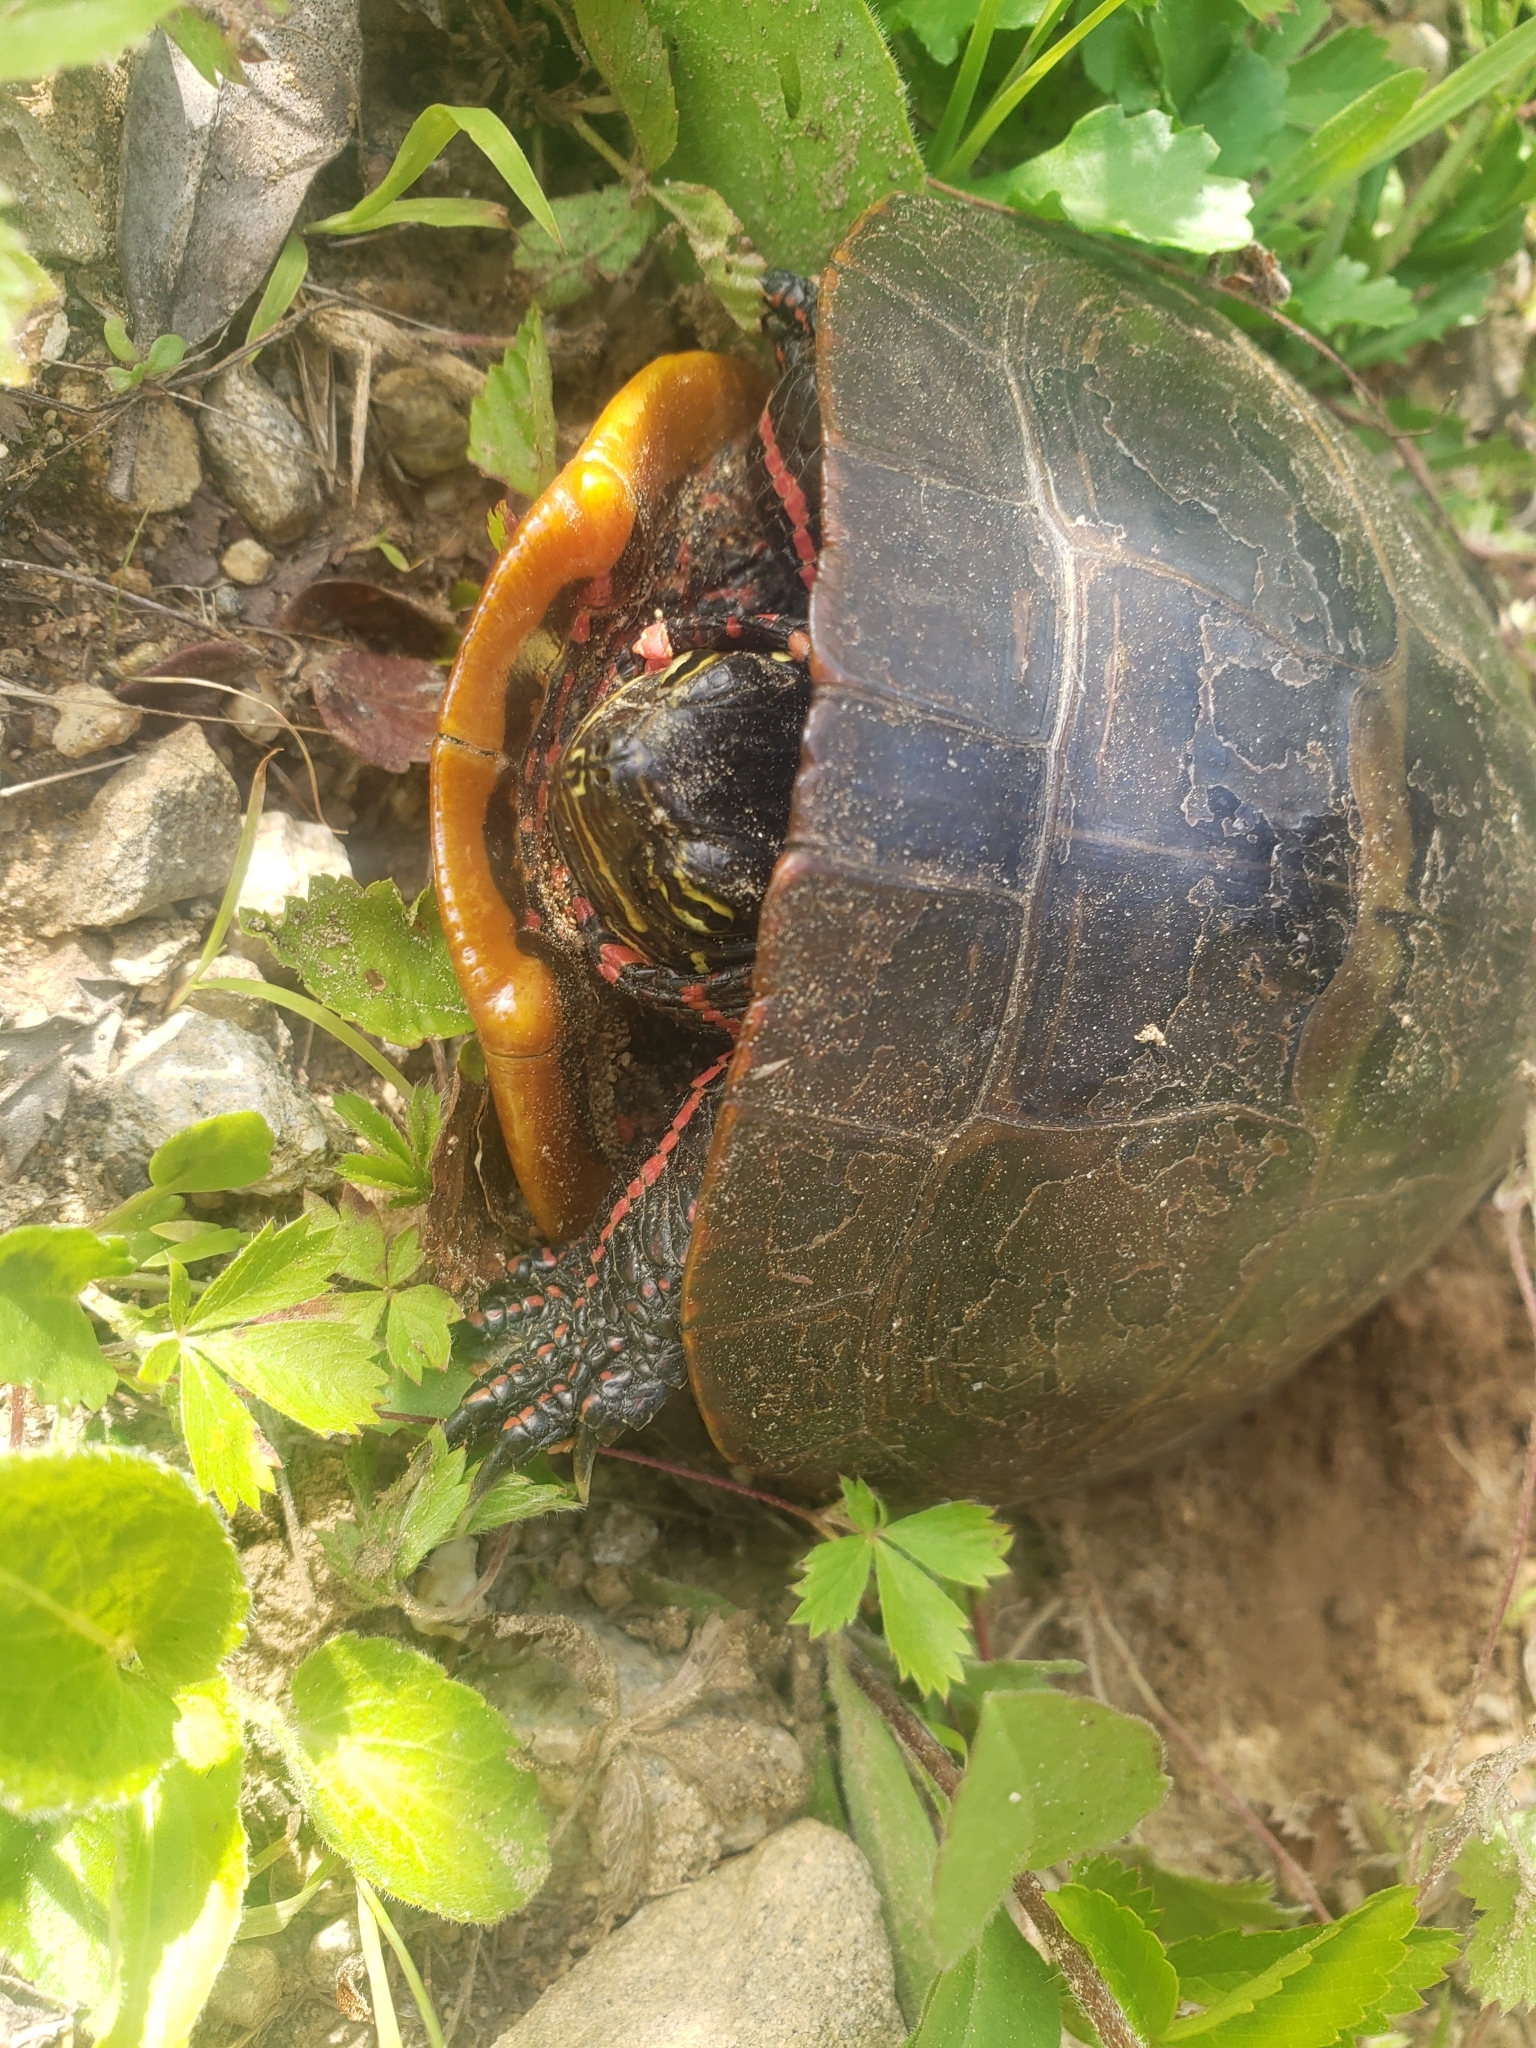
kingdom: Animalia
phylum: Chordata
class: Testudines
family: Emydidae
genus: Chrysemys
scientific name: Chrysemys picta
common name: Painted turtle
